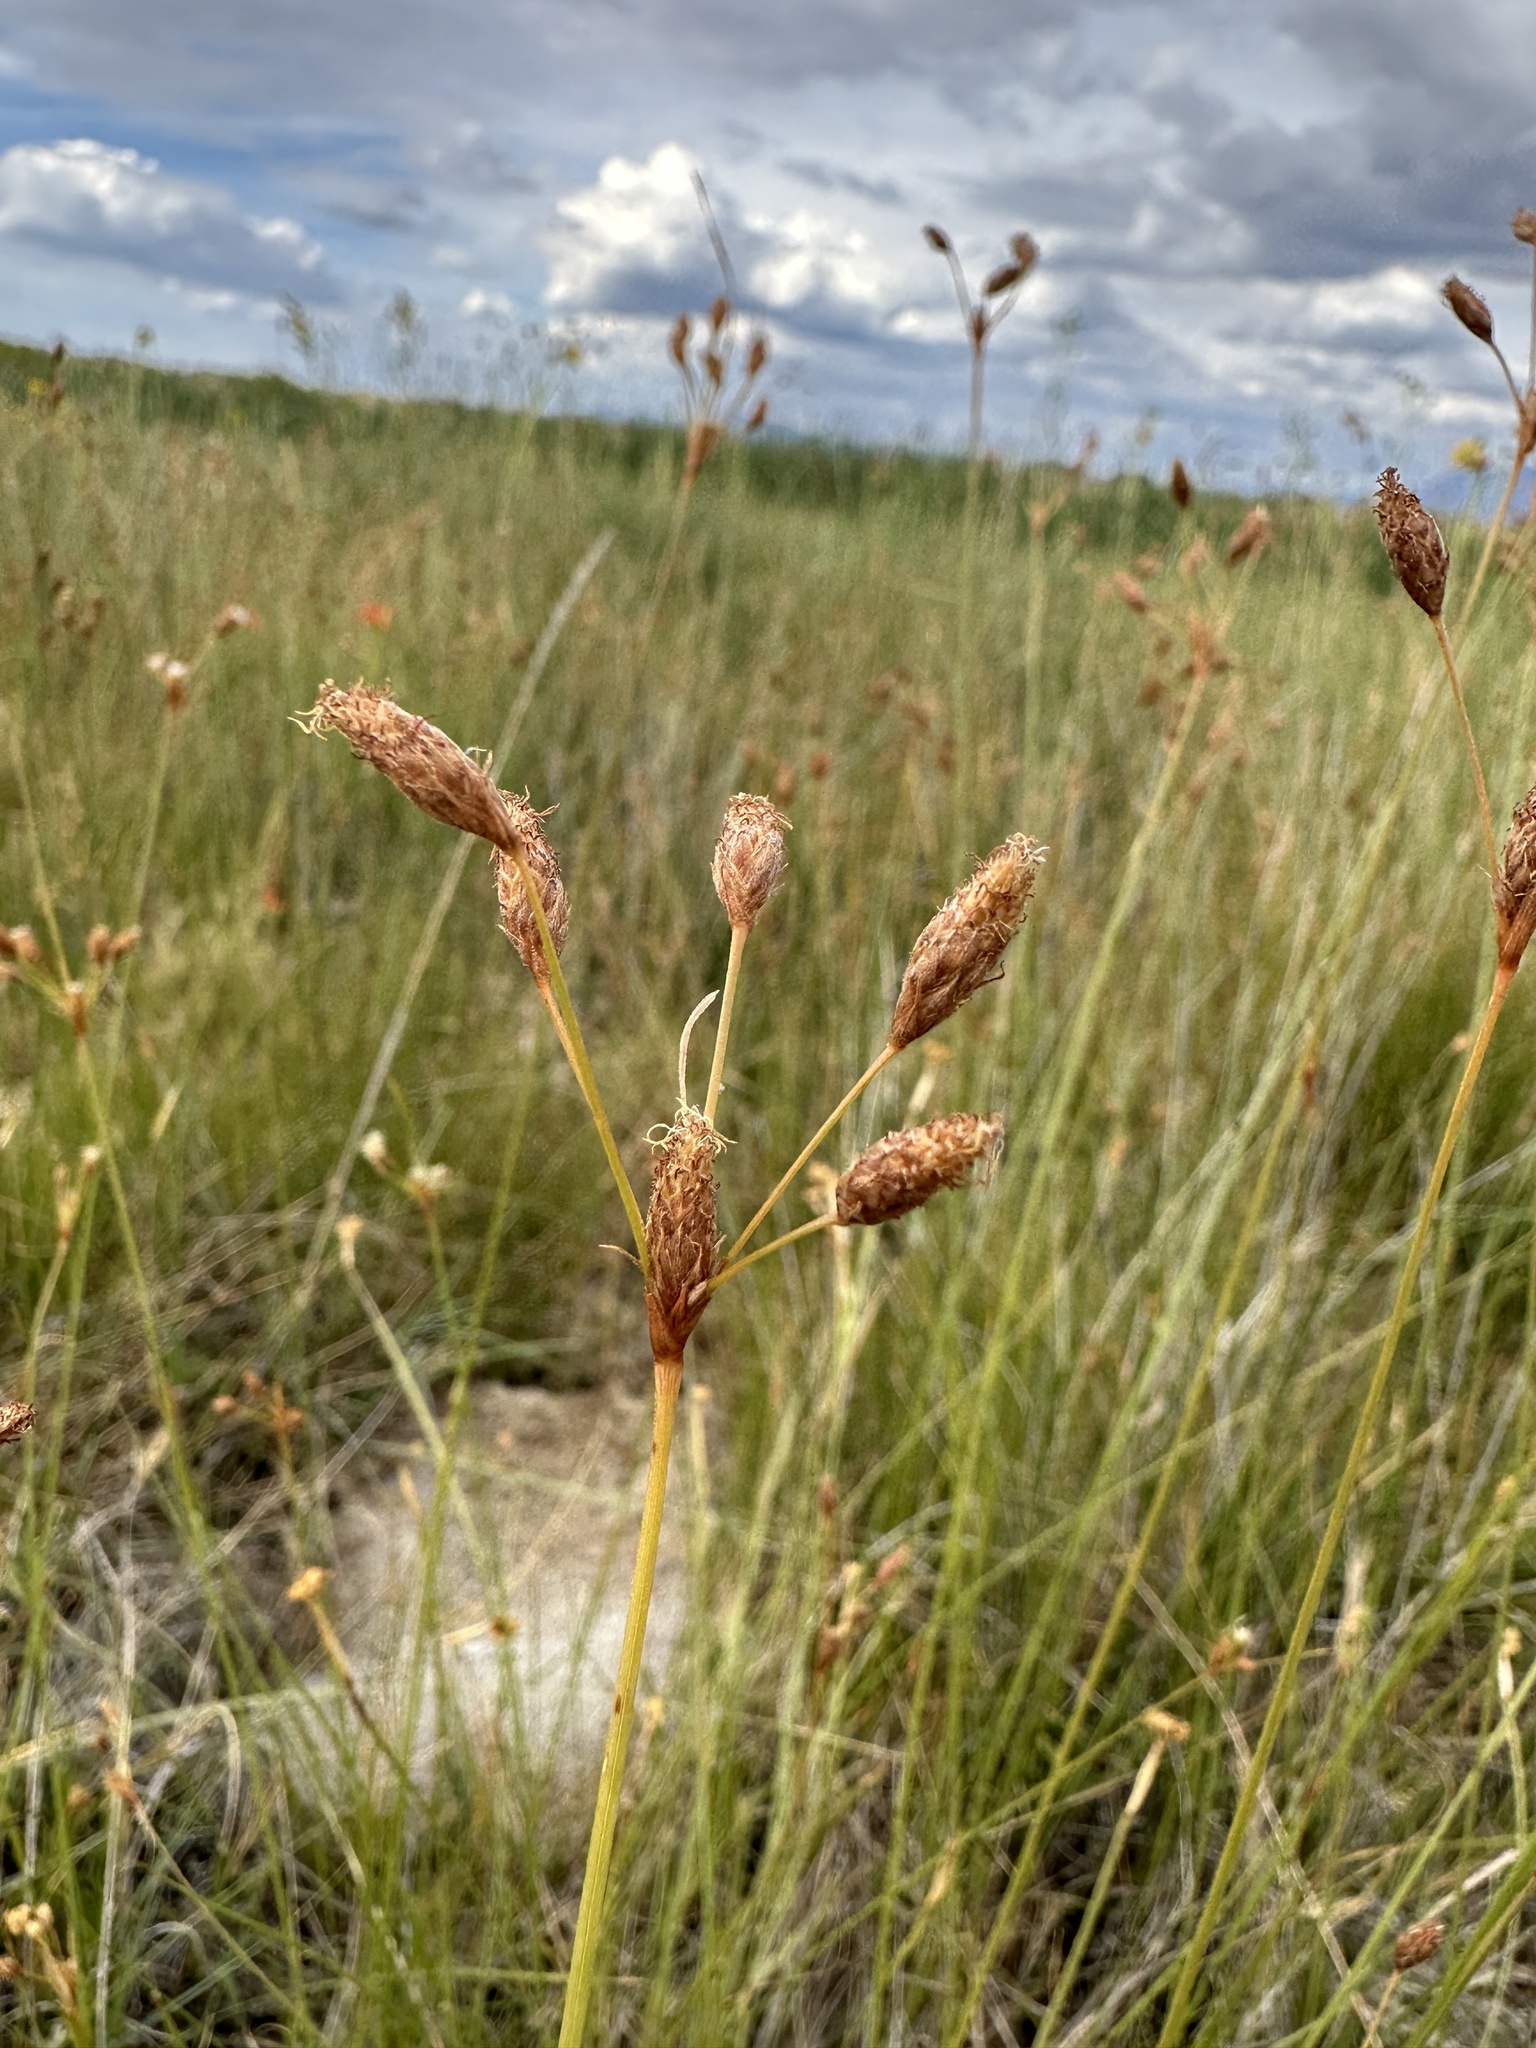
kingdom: Plantae
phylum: Tracheophyta
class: Liliopsida
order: Poales
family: Cyperaceae
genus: Fimbristylis
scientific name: Fimbristylis thermalis
